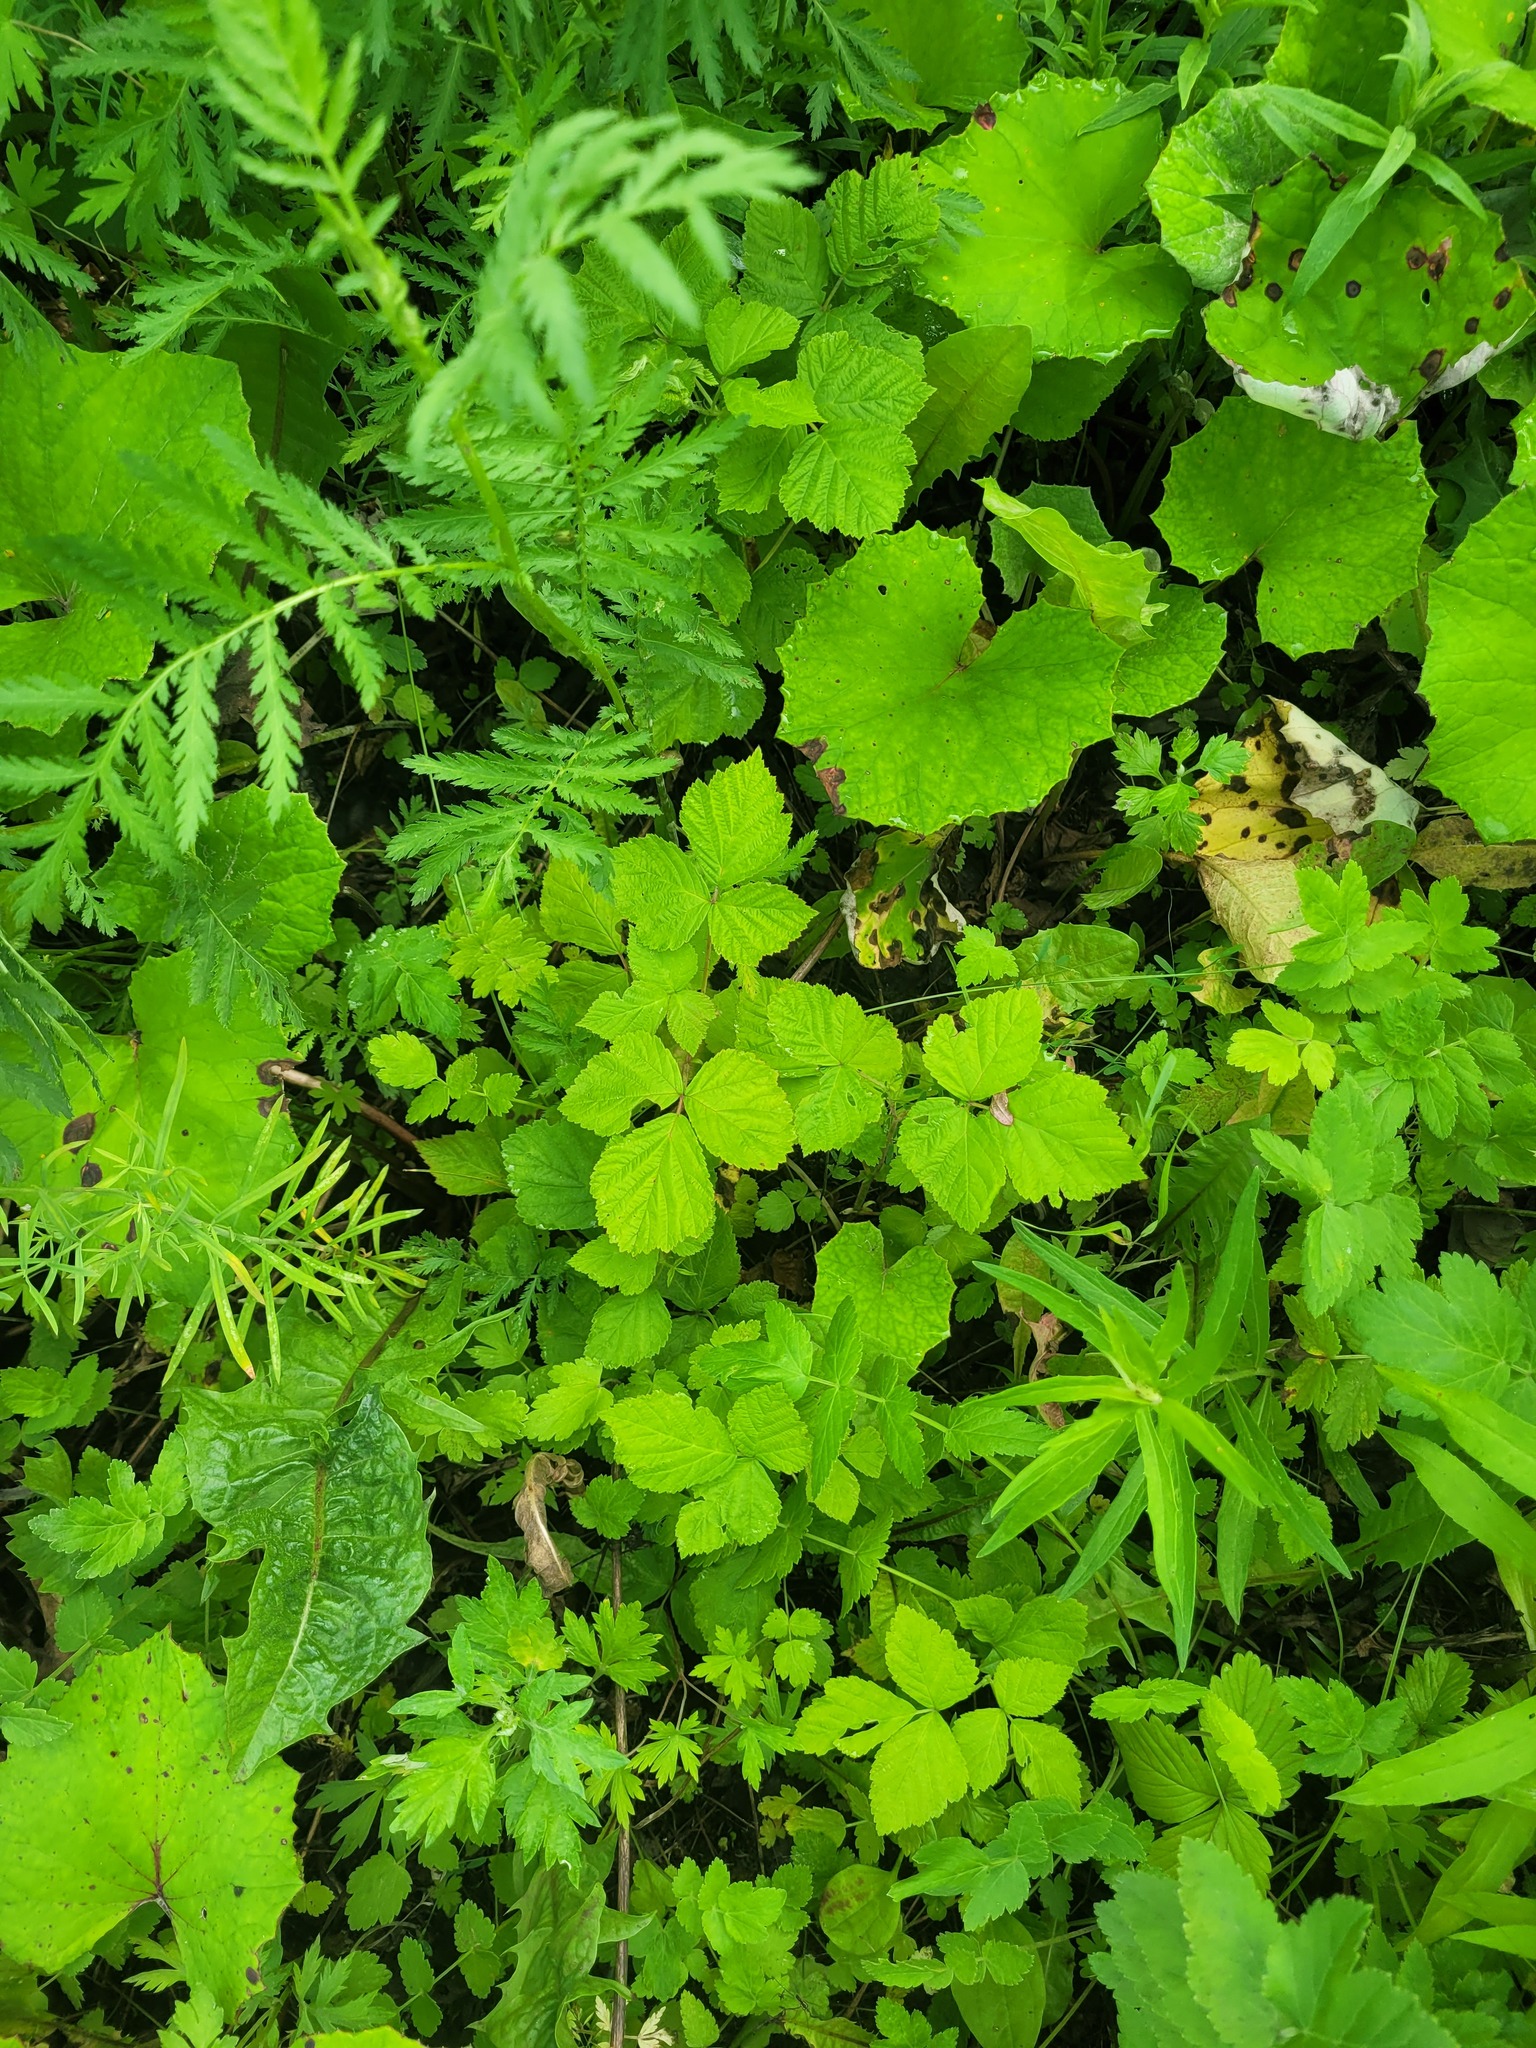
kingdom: Plantae
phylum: Tracheophyta
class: Magnoliopsida
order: Rosales
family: Rosaceae
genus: Rubus
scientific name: Rubus caesius
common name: Dewberry
